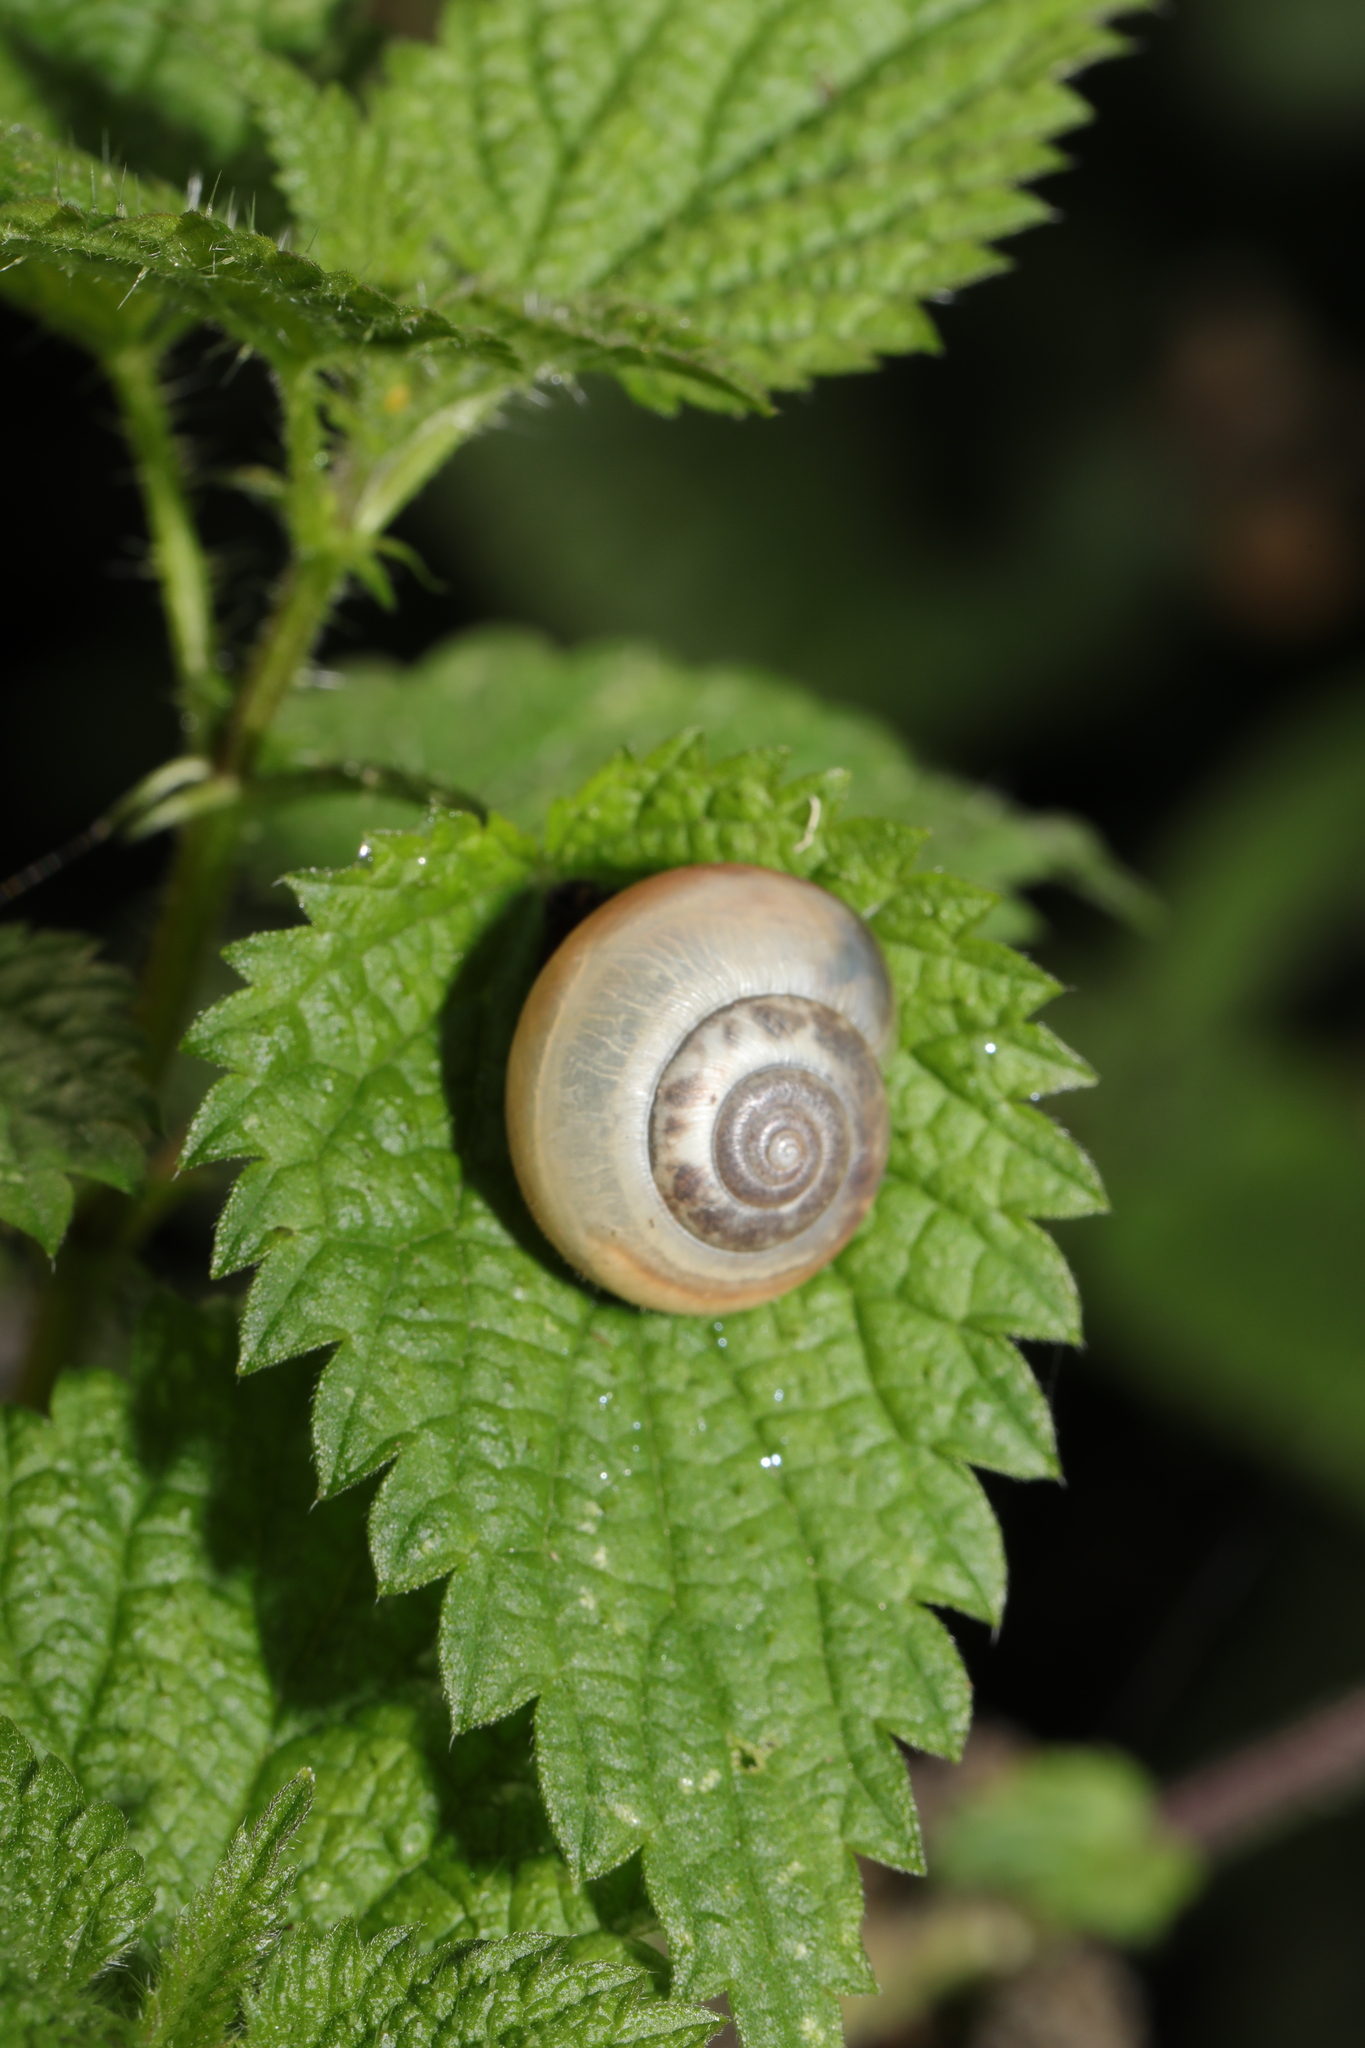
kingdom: Animalia
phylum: Mollusca
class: Gastropoda
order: Stylommatophora
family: Hygromiidae
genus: Monacha
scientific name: Monacha cantiana
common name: Kentish snail
